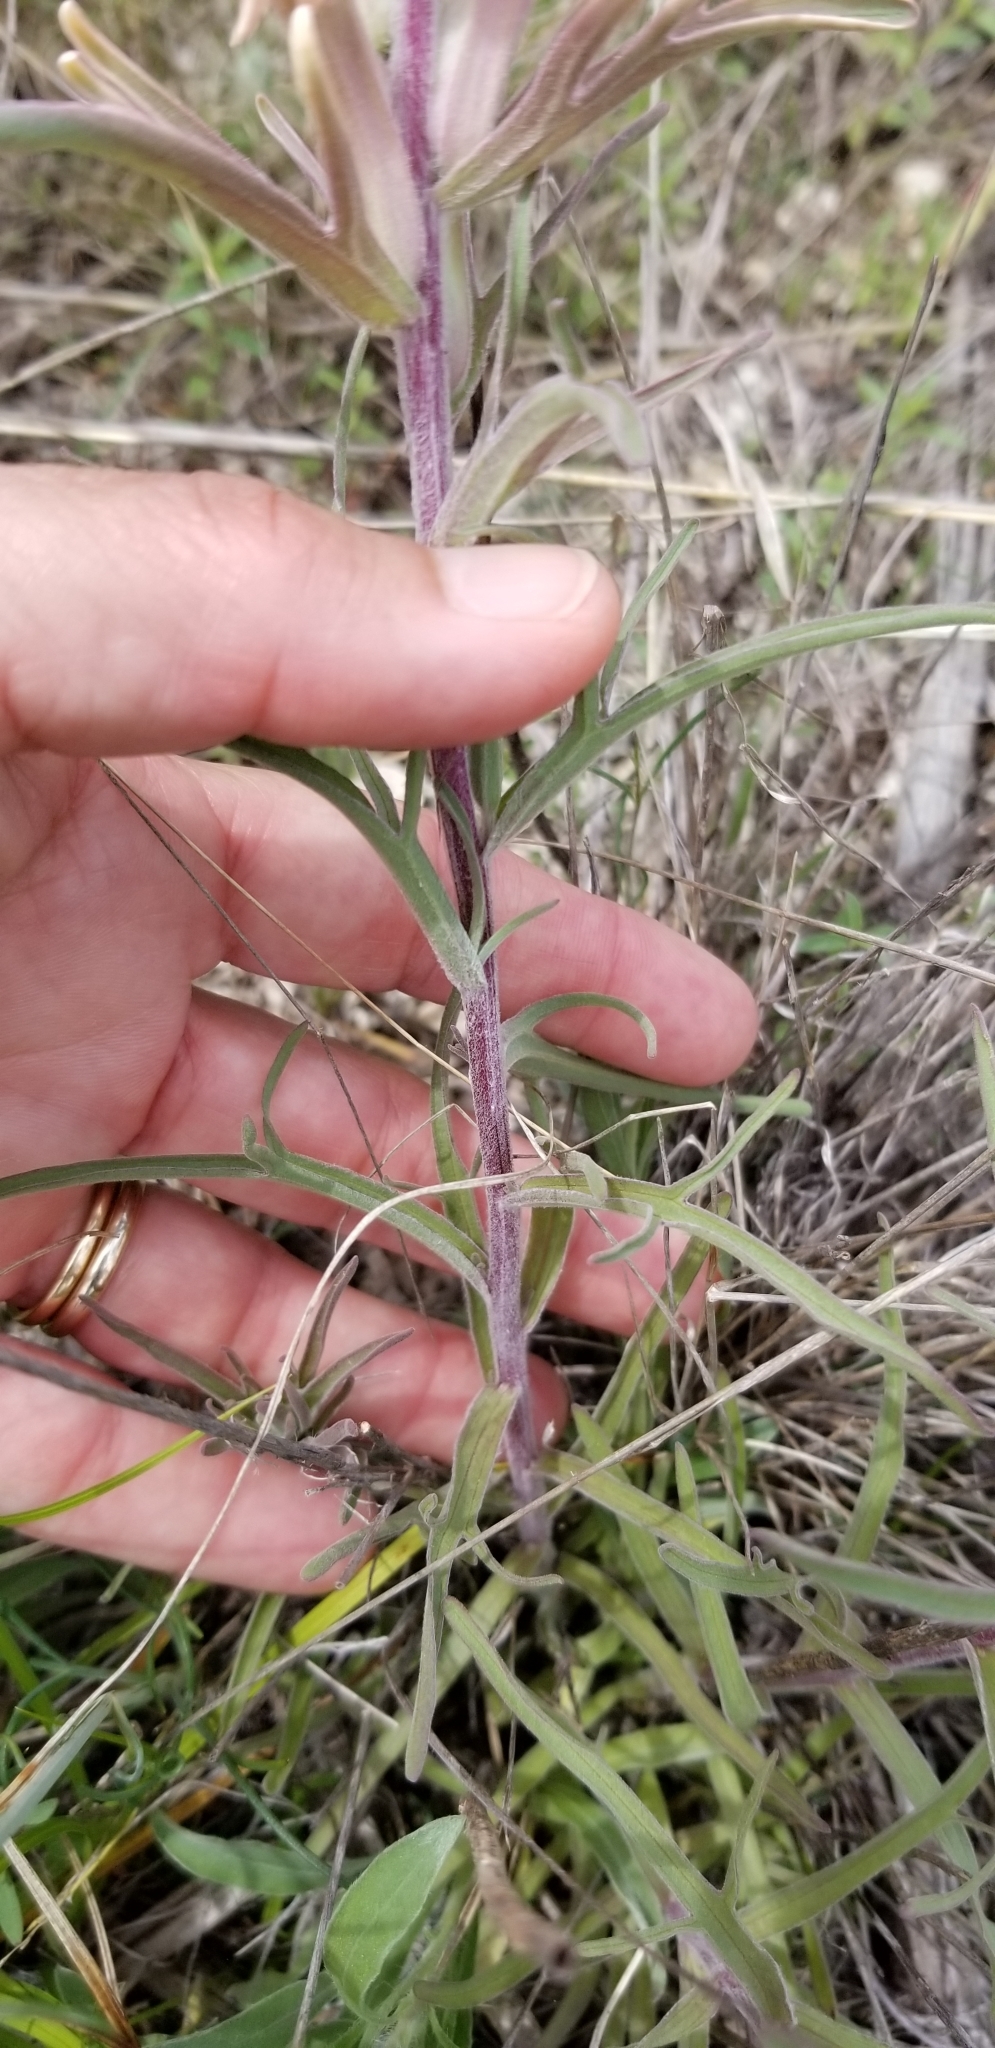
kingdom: Plantae
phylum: Tracheophyta
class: Magnoliopsida
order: Lamiales
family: Orobanchaceae
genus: Castilleja
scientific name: Castilleja lindheimeri
